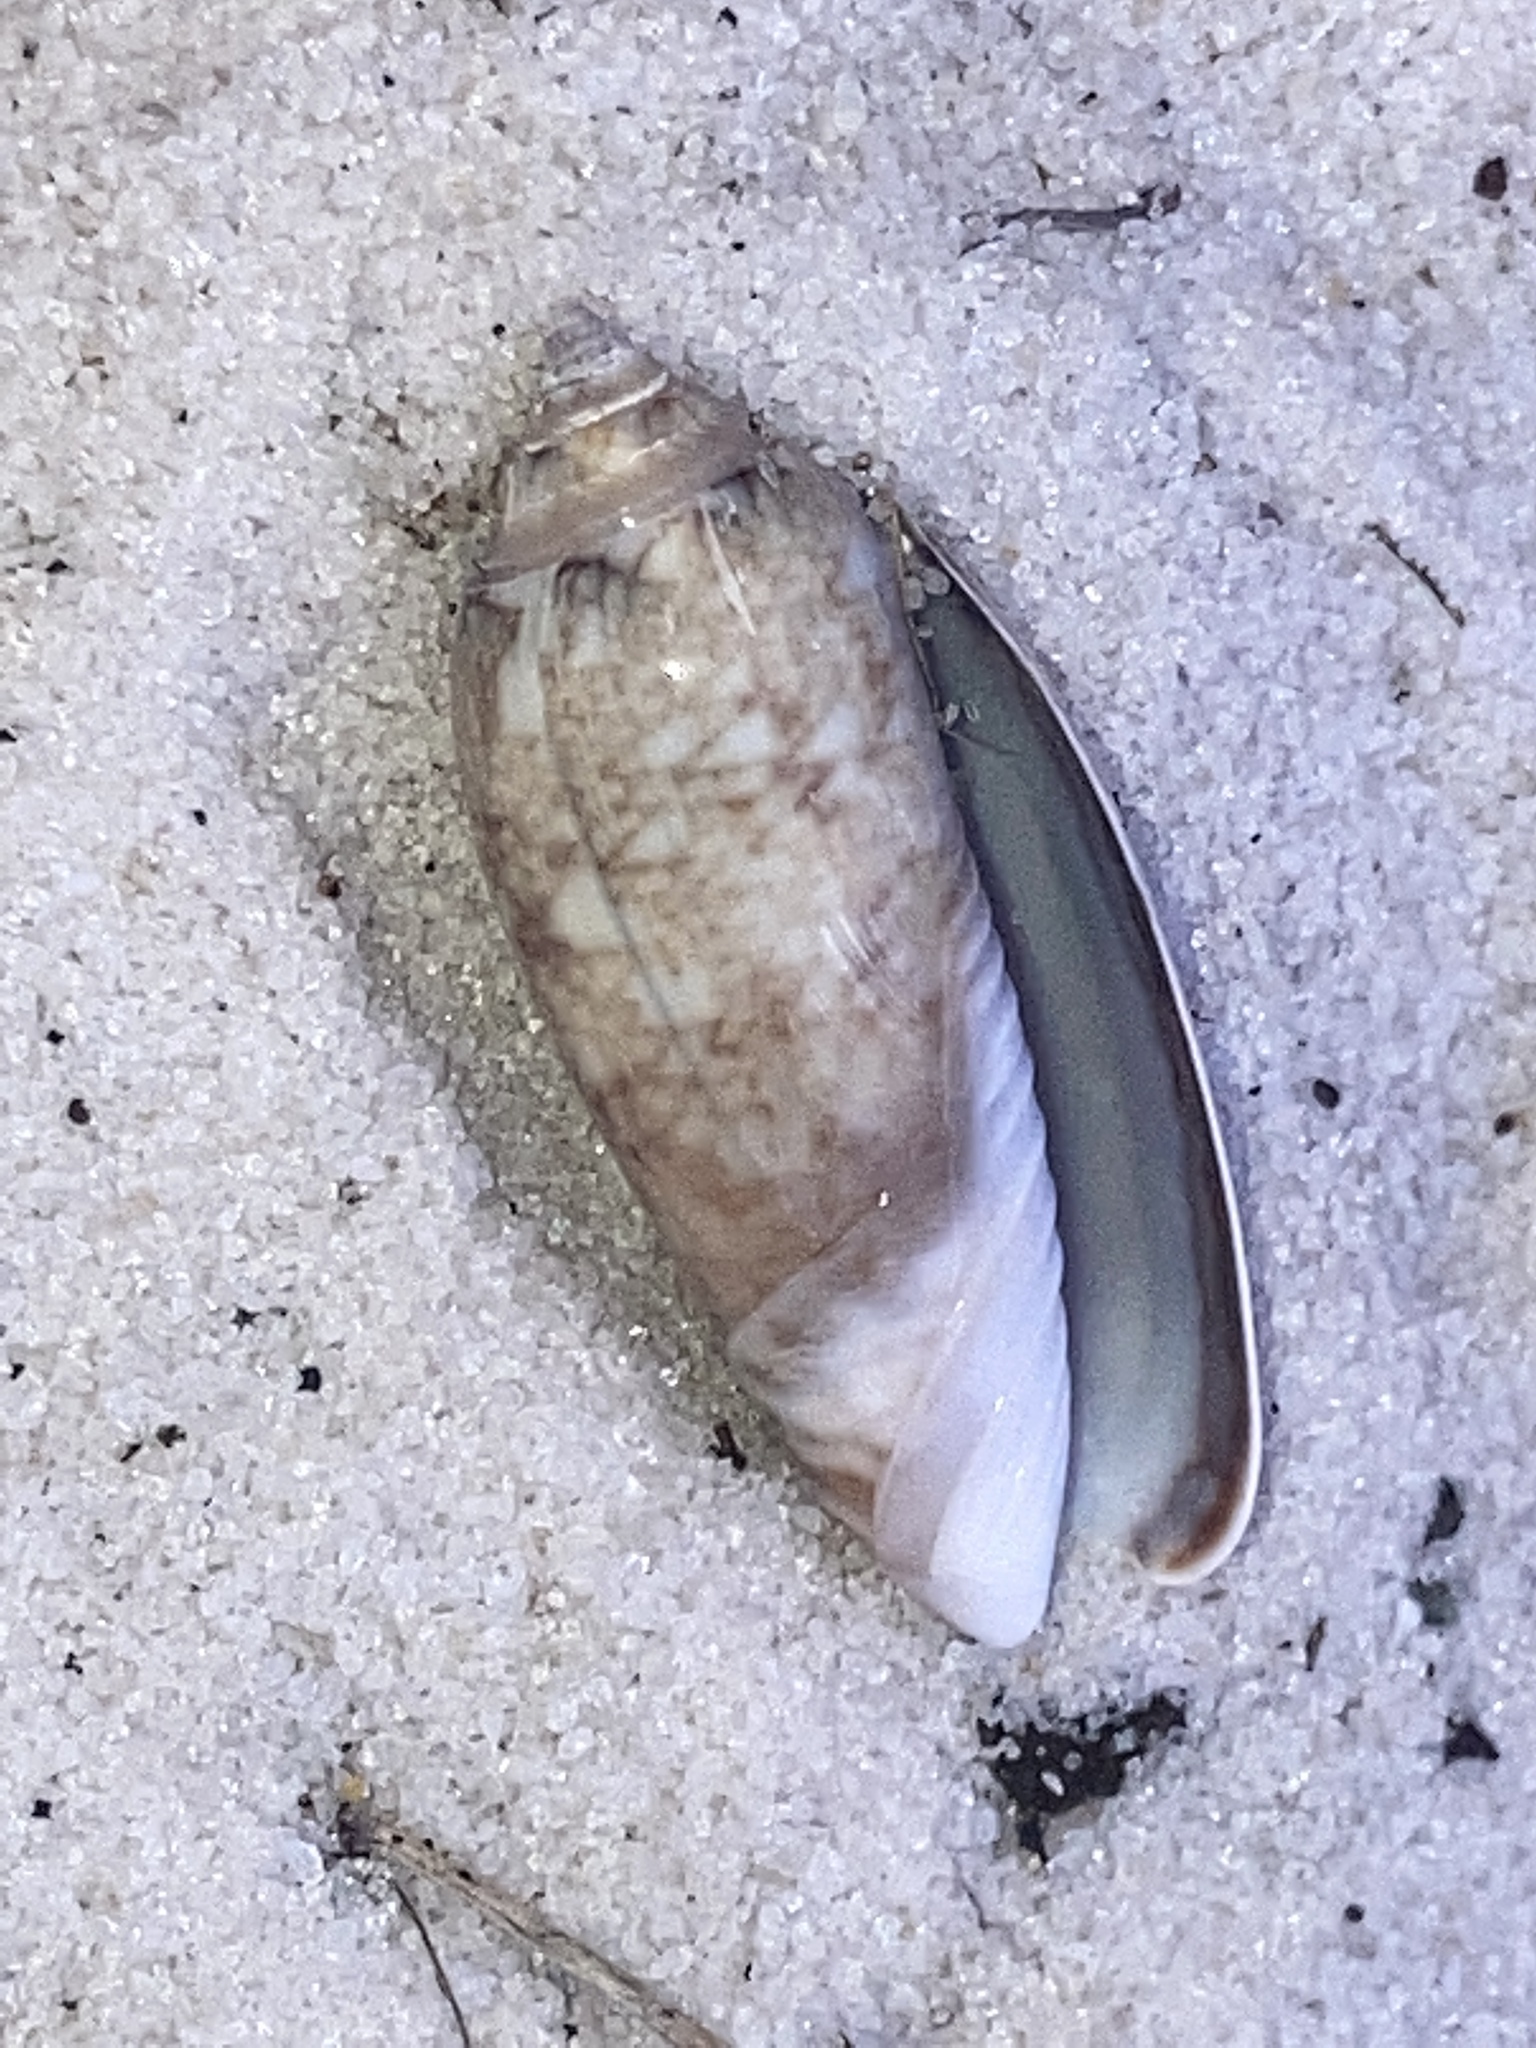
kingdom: Animalia
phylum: Mollusca
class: Gastropoda
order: Neogastropoda
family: Olividae
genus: Oliva
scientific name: Oliva sayana
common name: Lettered olive
